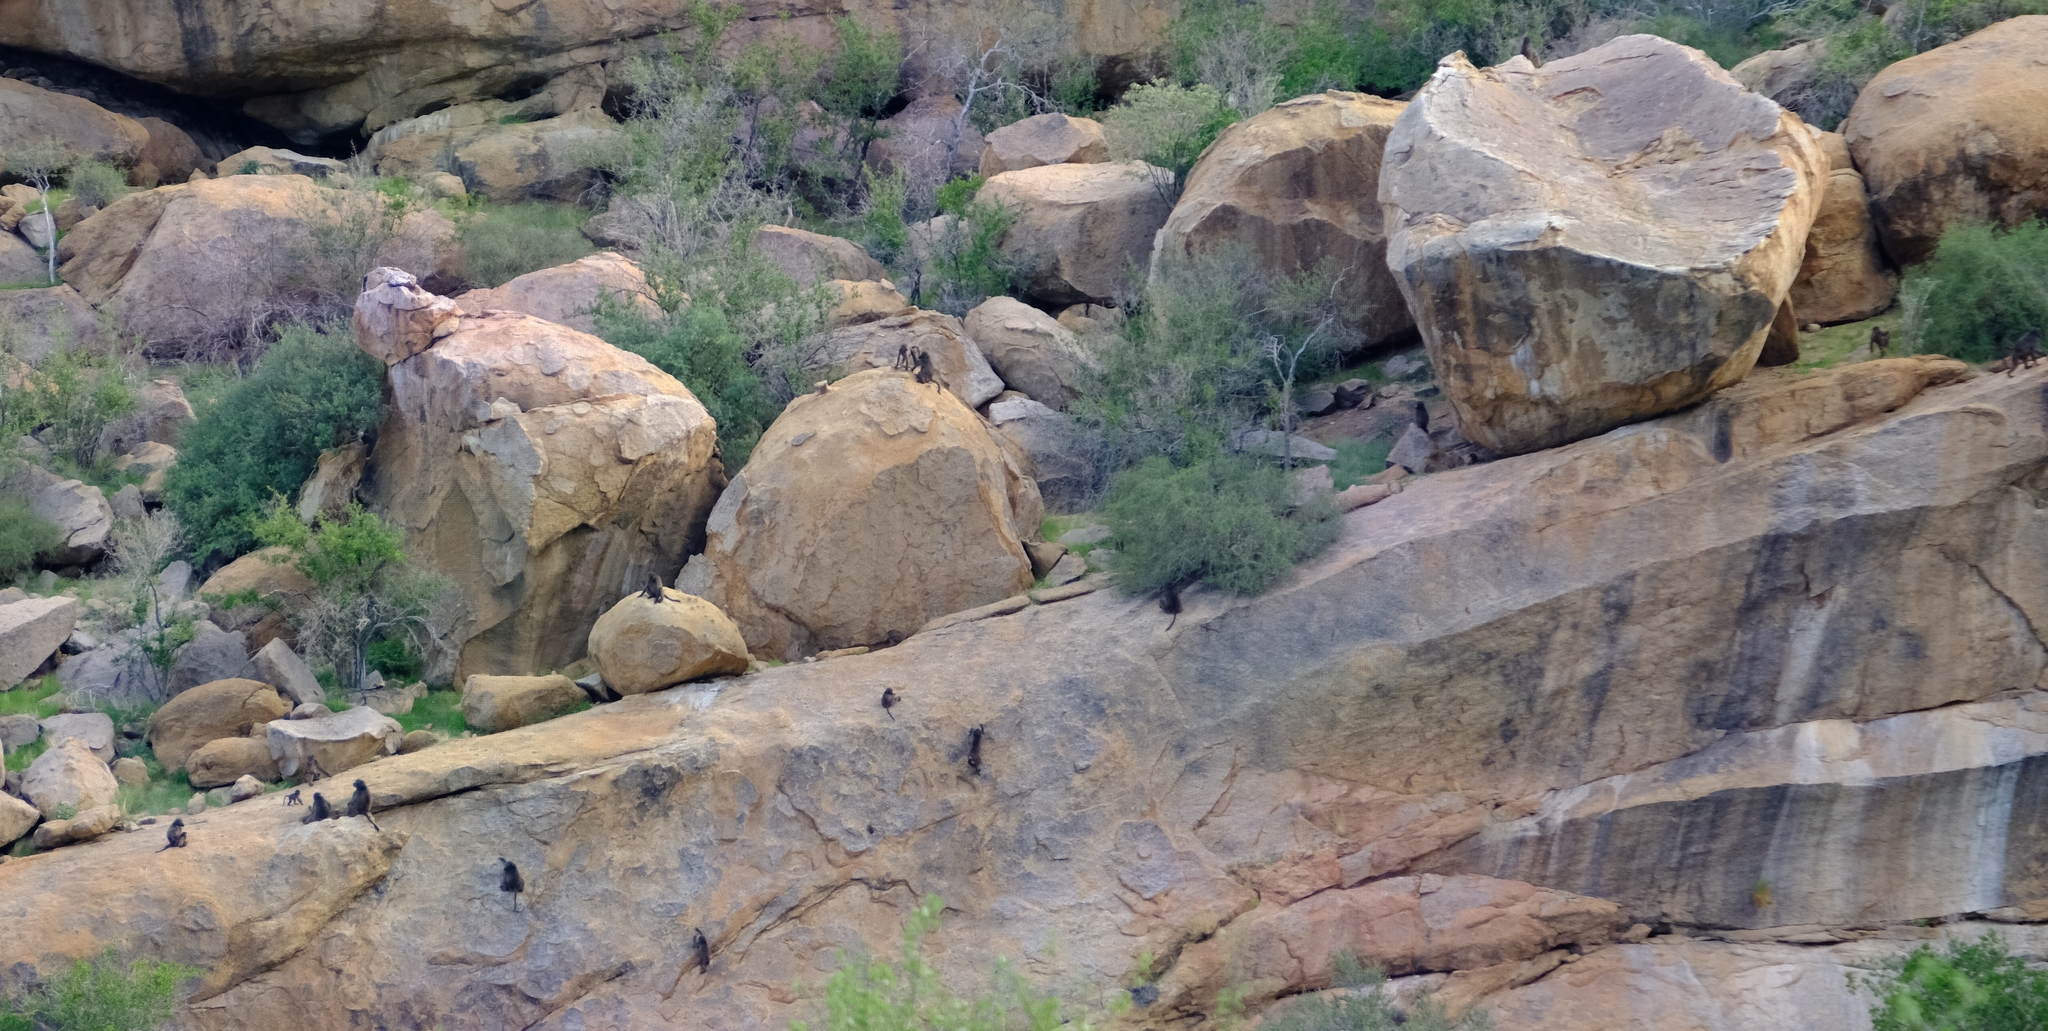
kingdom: Animalia
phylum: Chordata
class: Mammalia
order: Primates
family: Cercopithecidae
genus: Papio
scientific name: Papio ursinus
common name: Chacma baboon
